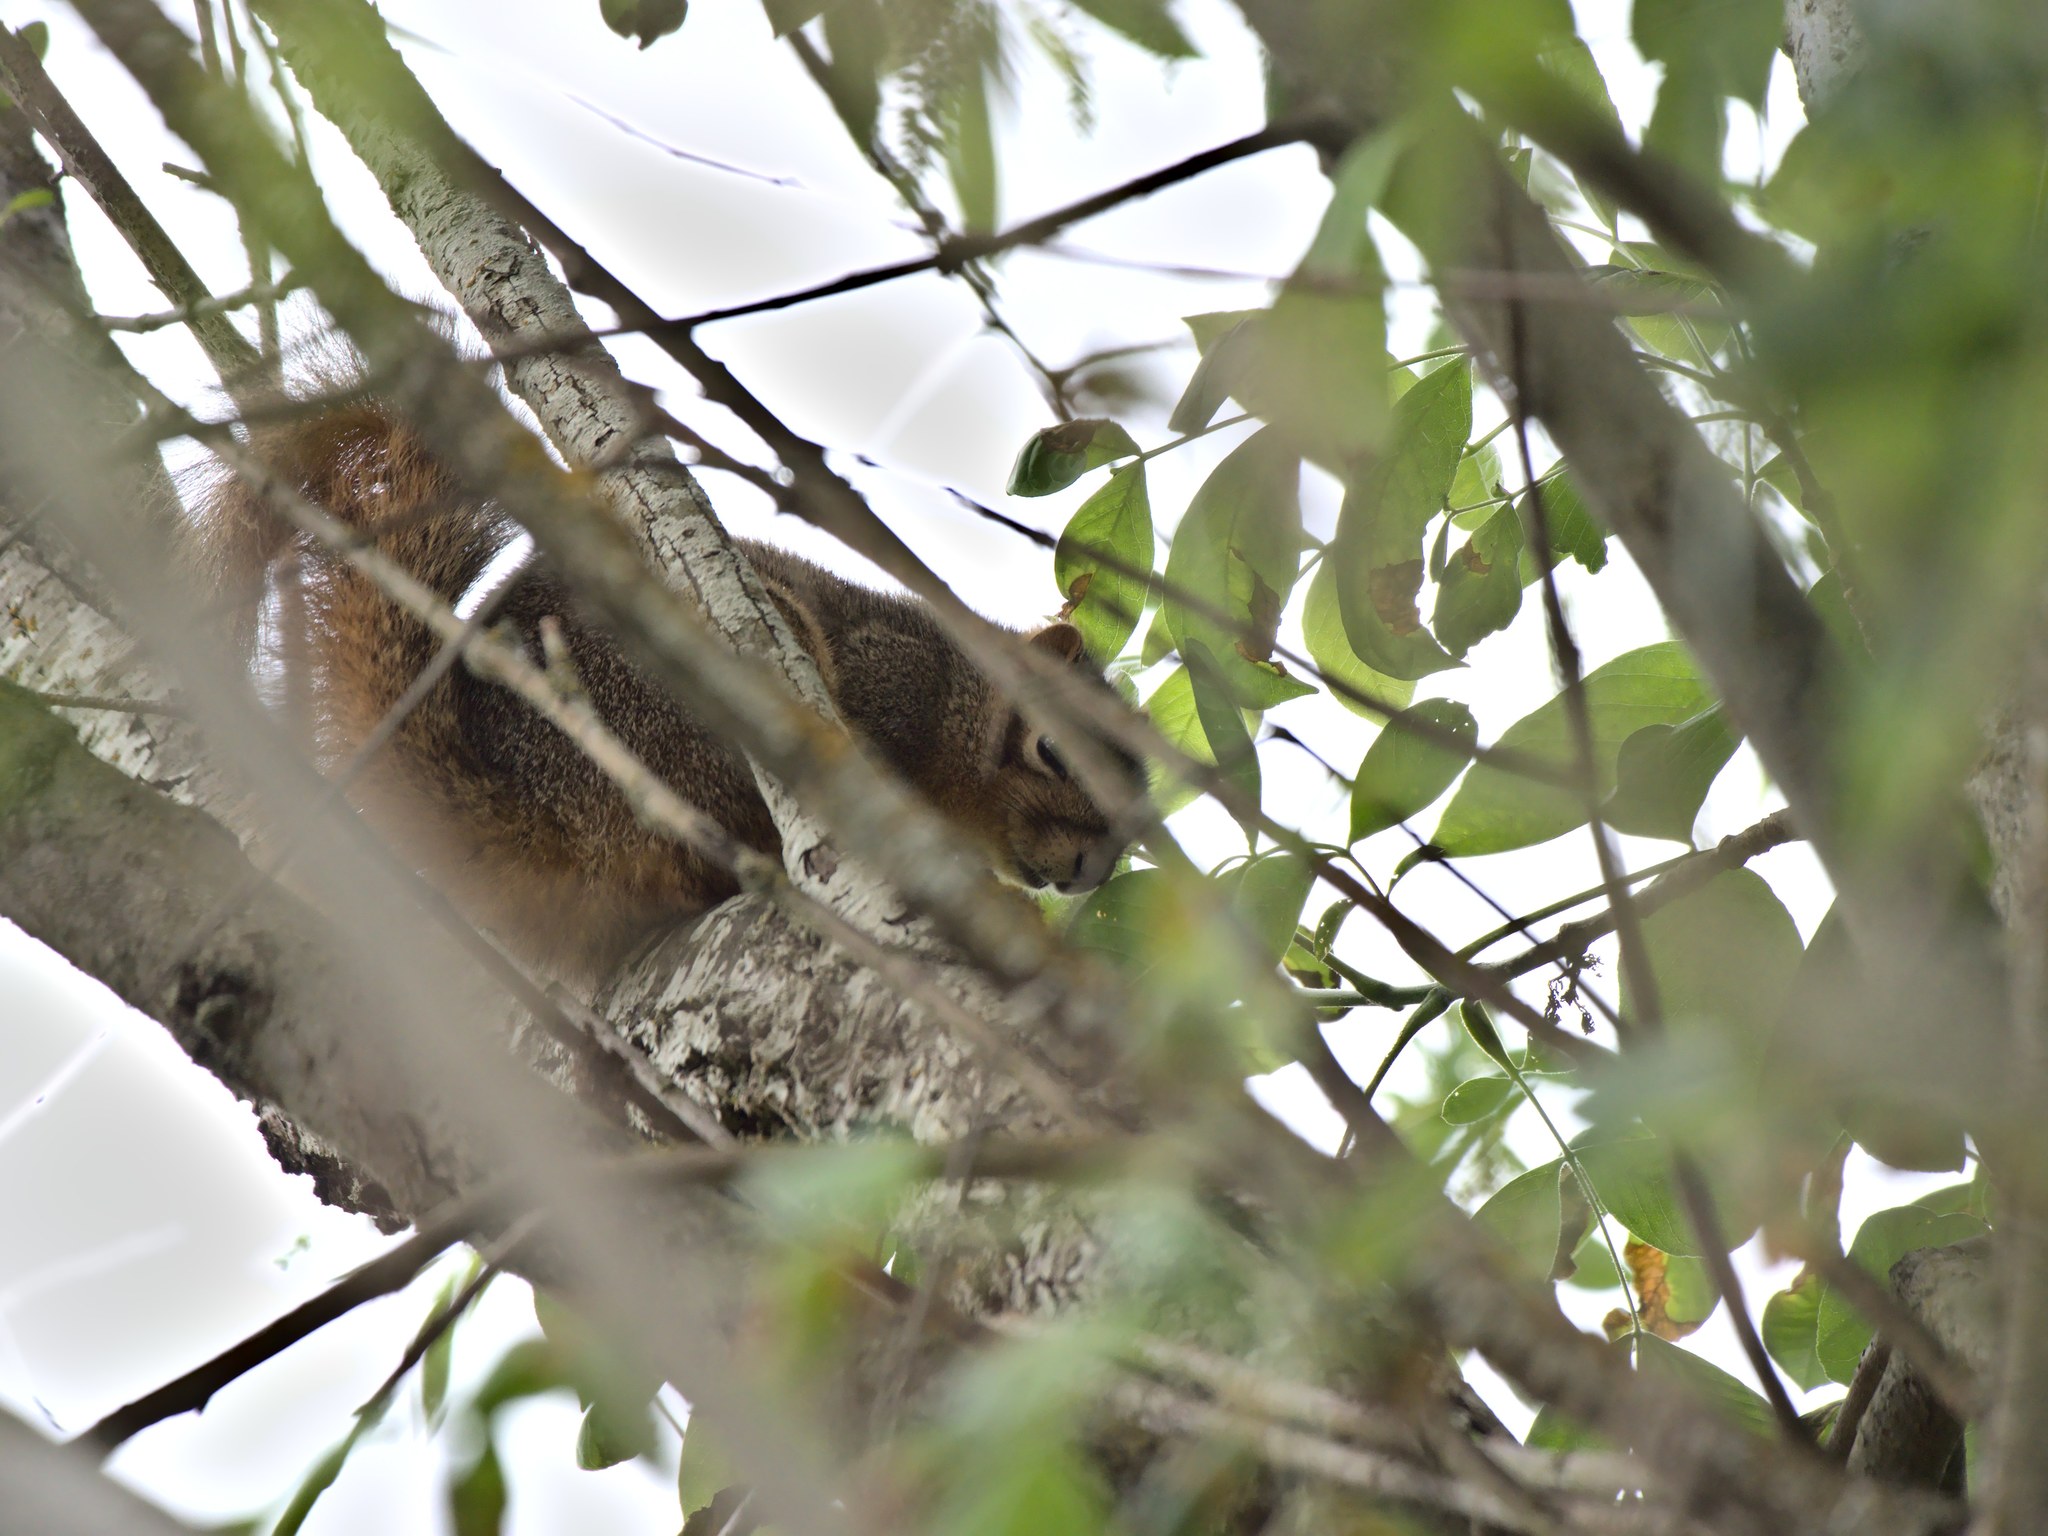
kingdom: Animalia
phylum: Chordata
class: Mammalia
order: Rodentia
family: Sciuridae
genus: Sciurus
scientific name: Sciurus niger
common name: Fox squirrel
